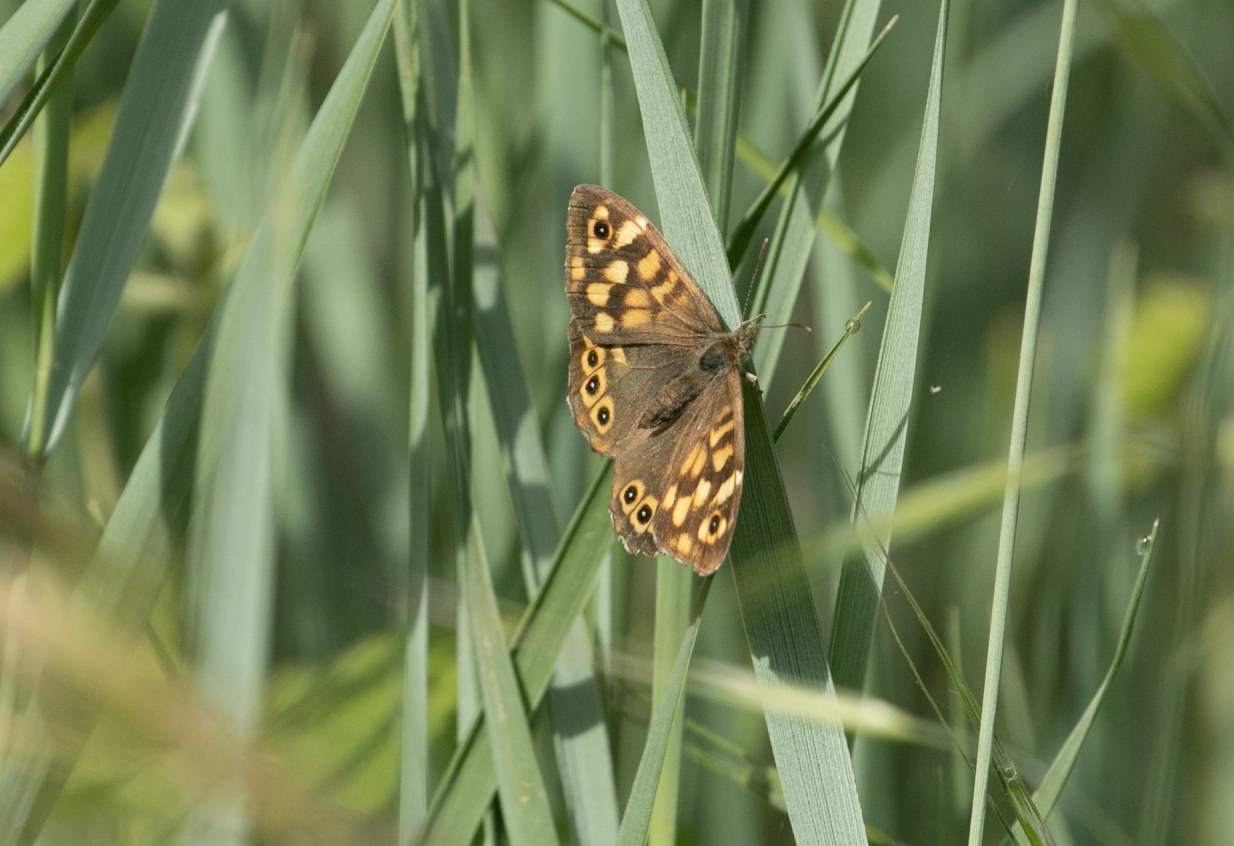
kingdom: Animalia
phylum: Arthropoda
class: Insecta
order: Lepidoptera
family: Nymphalidae
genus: Pararge
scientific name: Pararge aegeria
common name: Speckled wood
